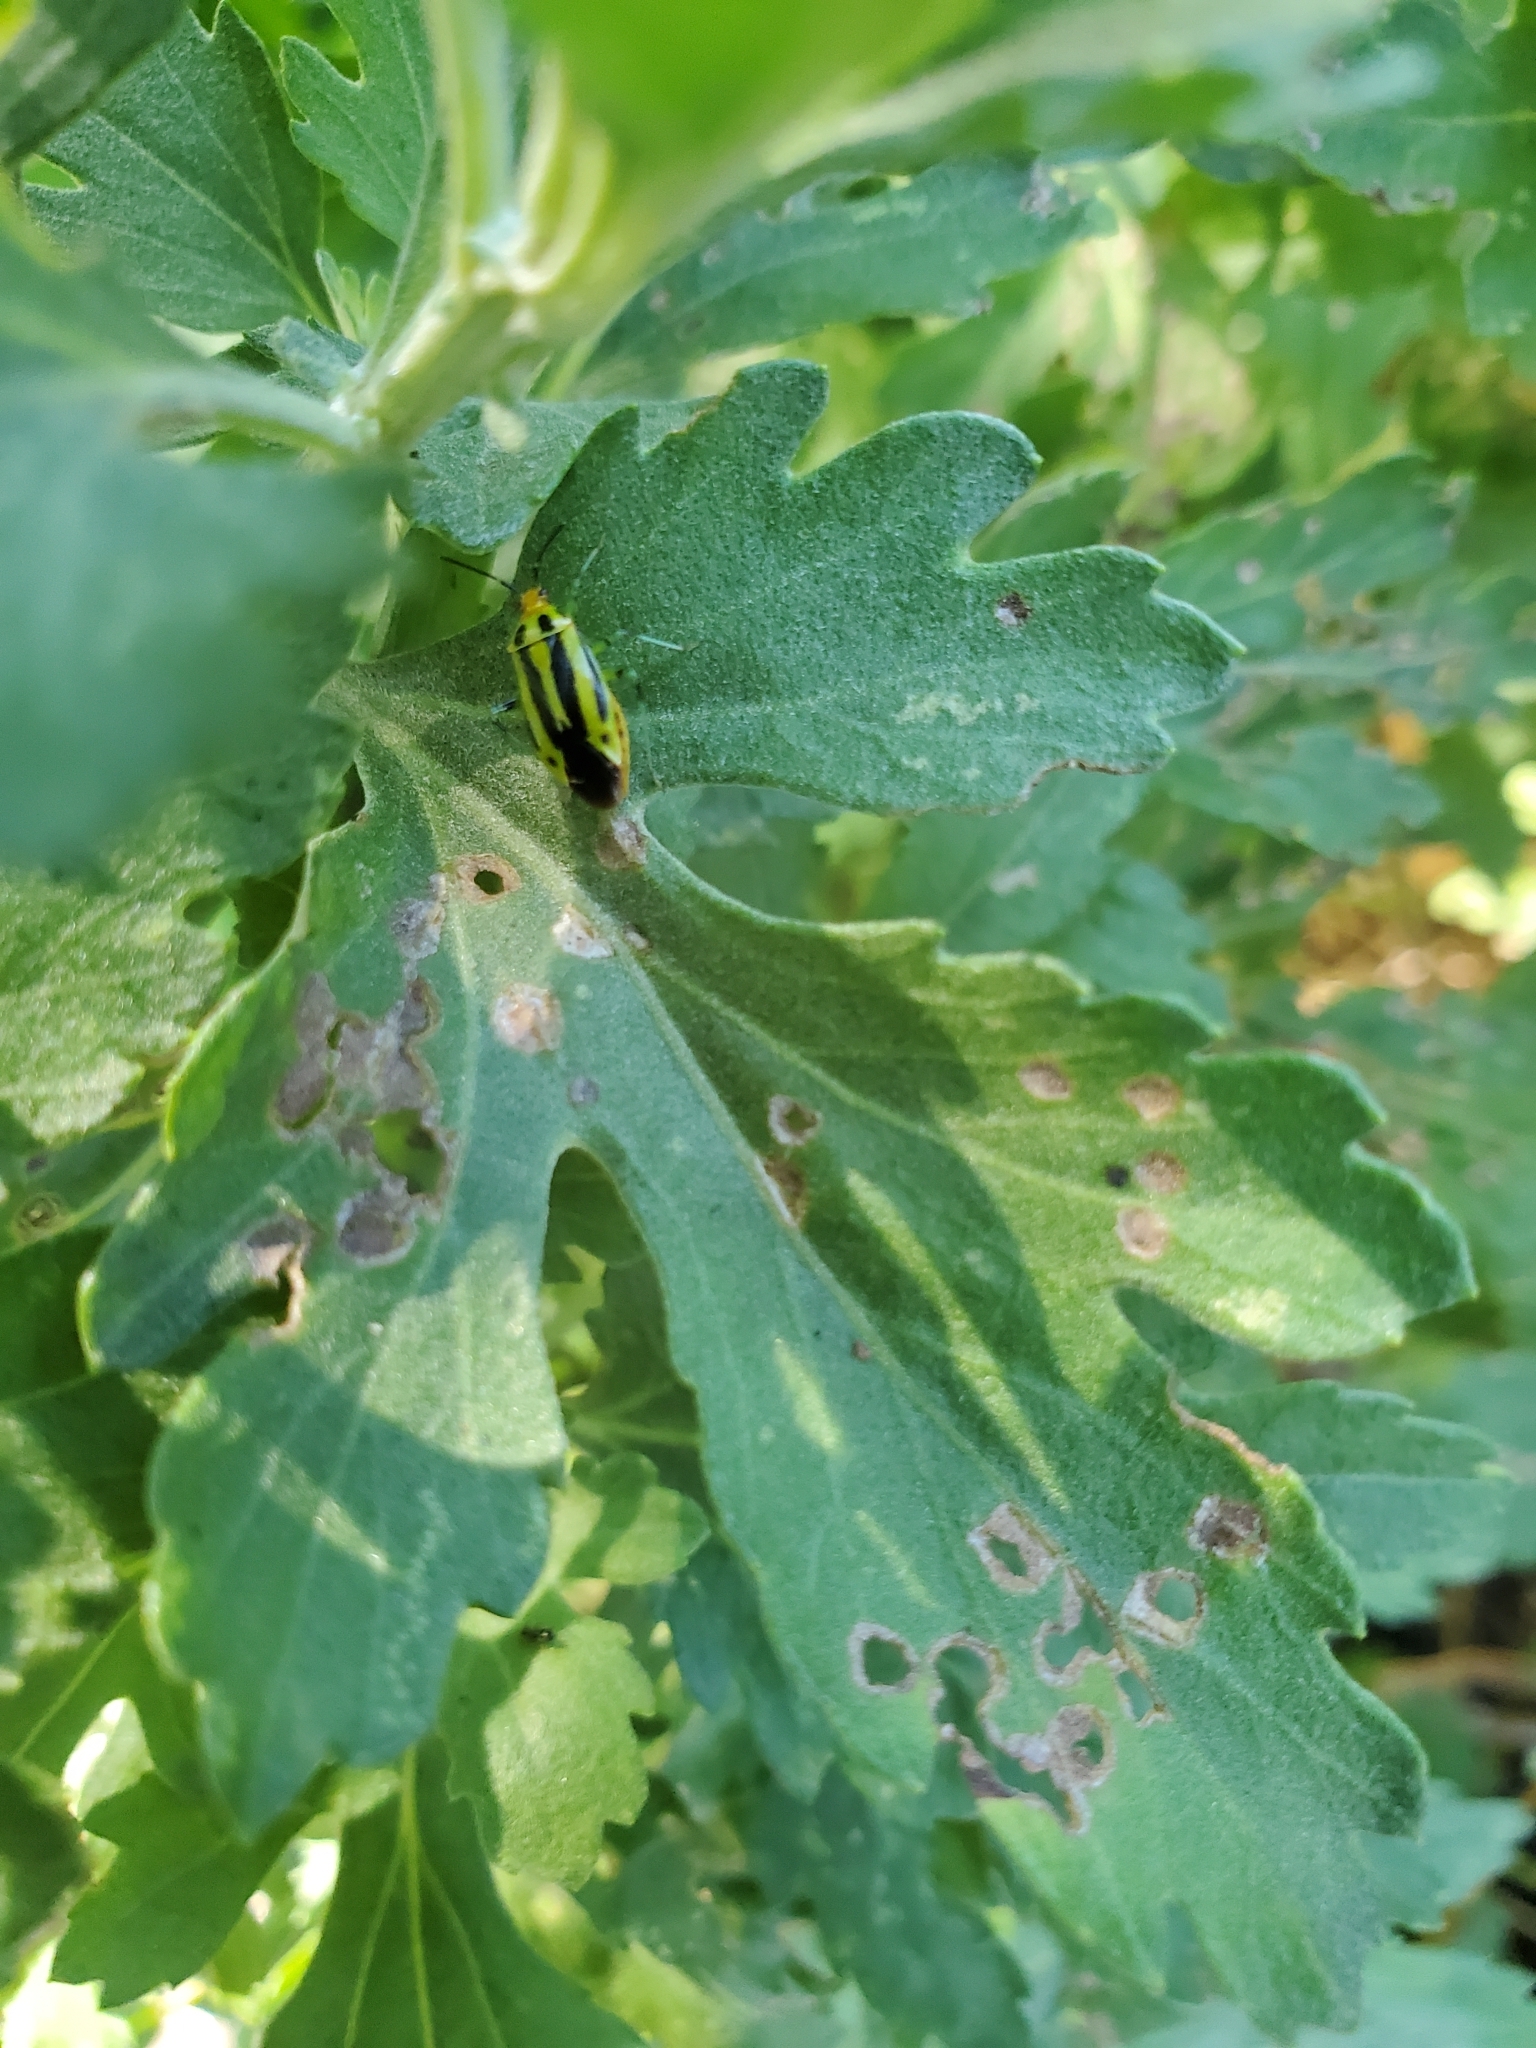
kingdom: Animalia
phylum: Arthropoda
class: Insecta
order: Hemiptera
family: Miridae
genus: Poecilocapsus
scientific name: Poecilocapsus lineatus
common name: Four-lined plant bug
